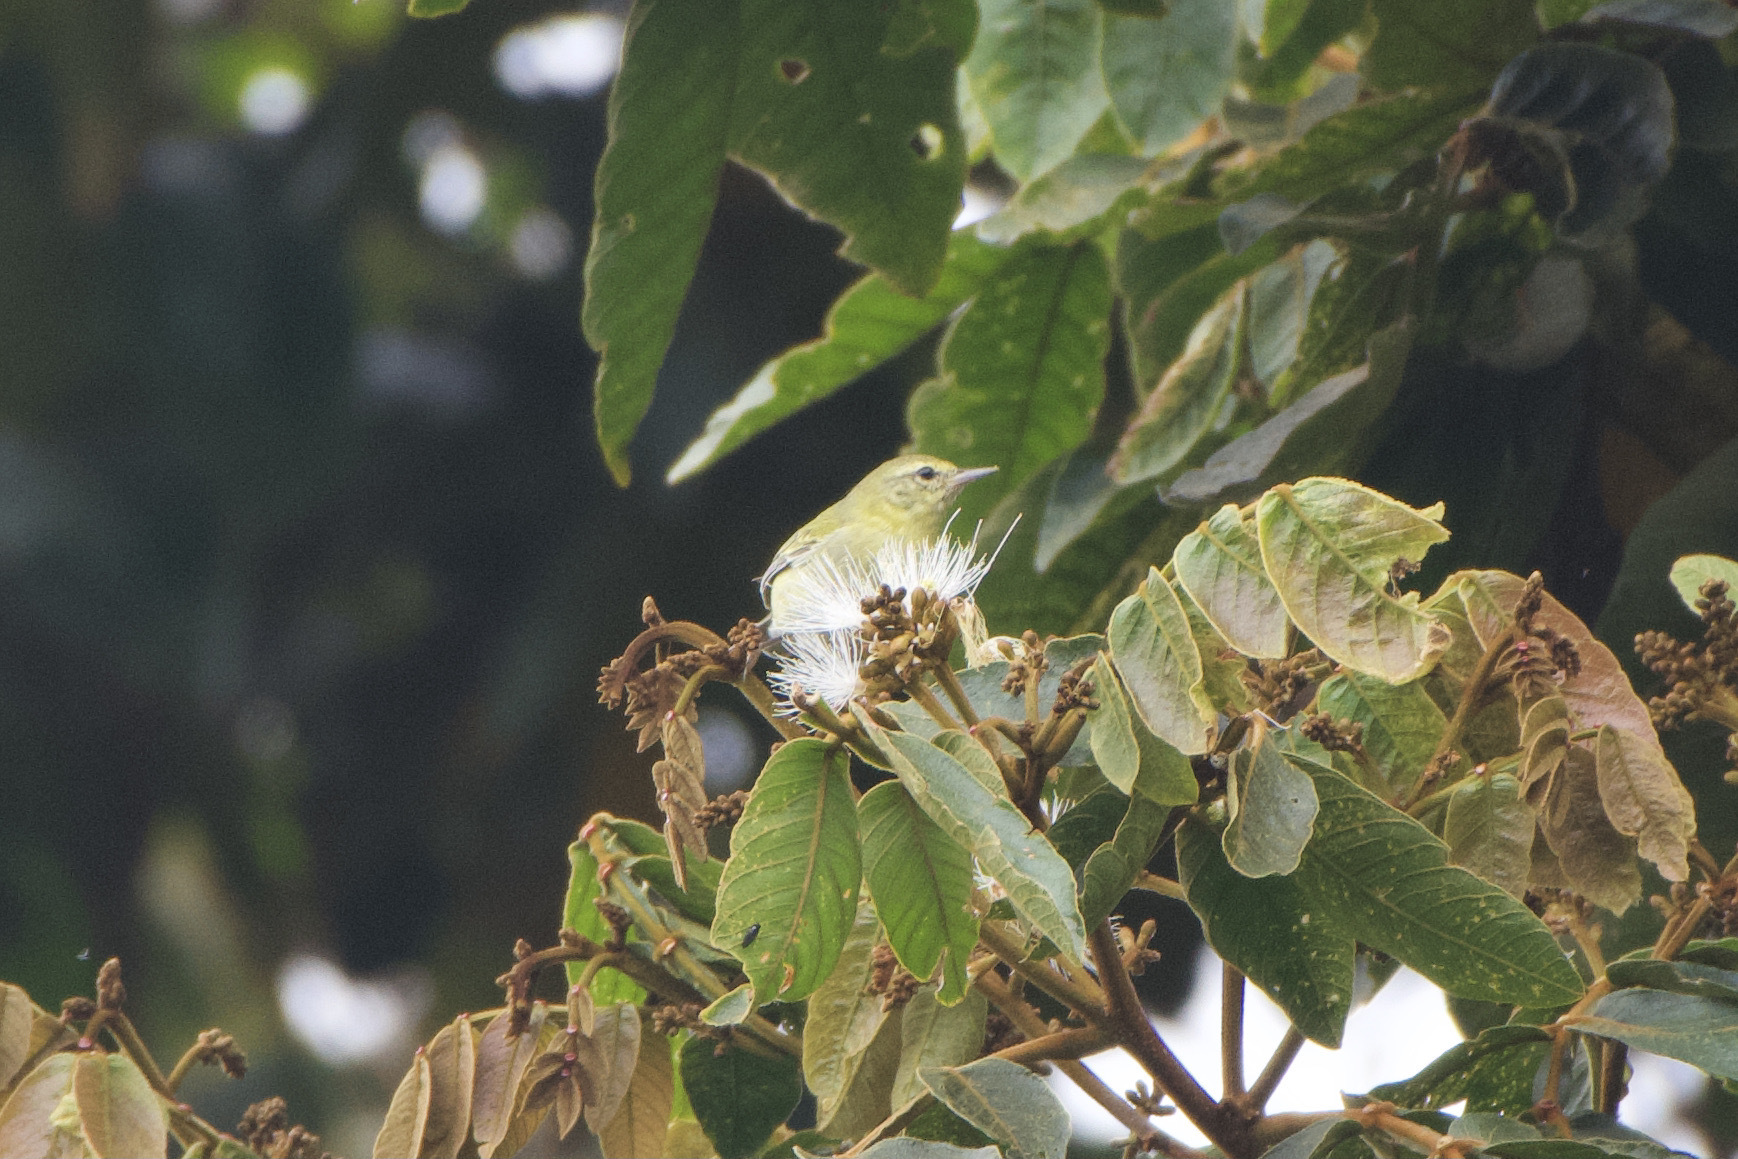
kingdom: Animalia
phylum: Chordata
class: Aves
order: Passeriformes
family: Parulidae
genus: Leiothlypis
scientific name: Leiothlypis peregrina
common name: Tennessee warbler
